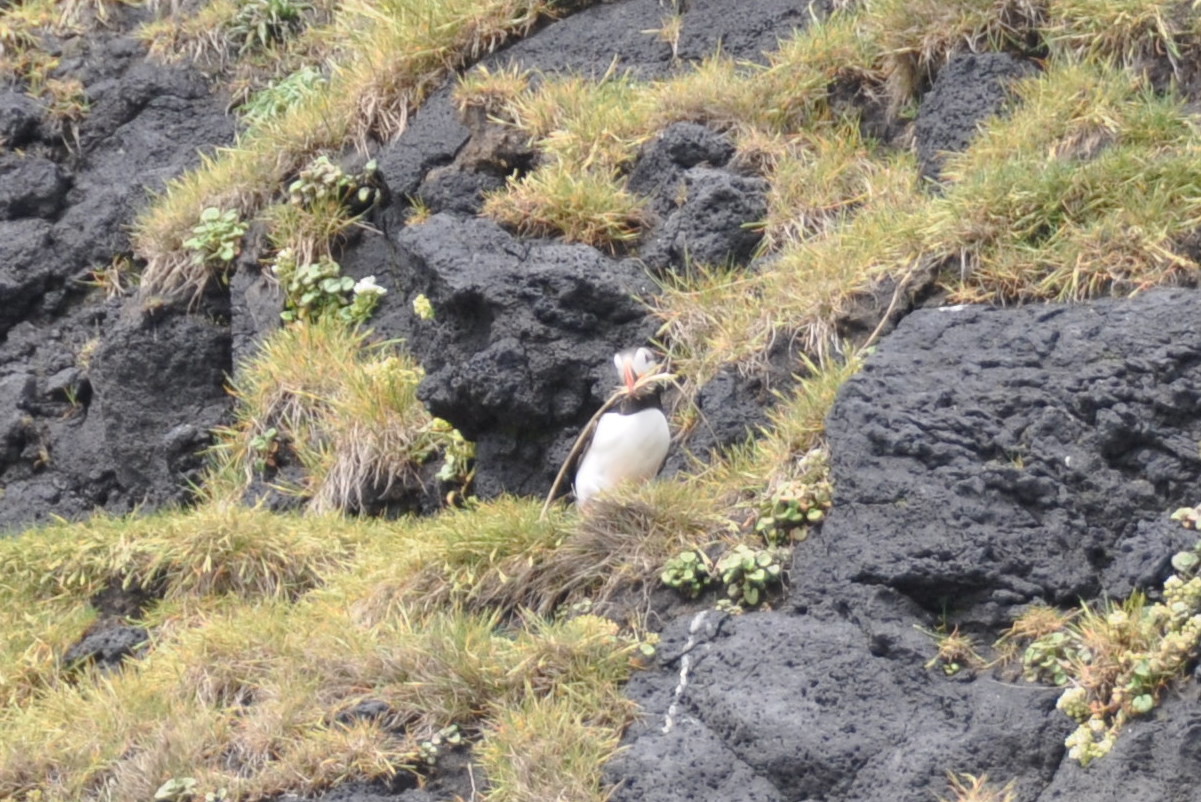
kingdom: Animalia
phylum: Chordata
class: Aves
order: Charadriiformes
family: Alcidae
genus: Fratercula
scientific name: Fratercula arctica
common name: Atlantic puffin
